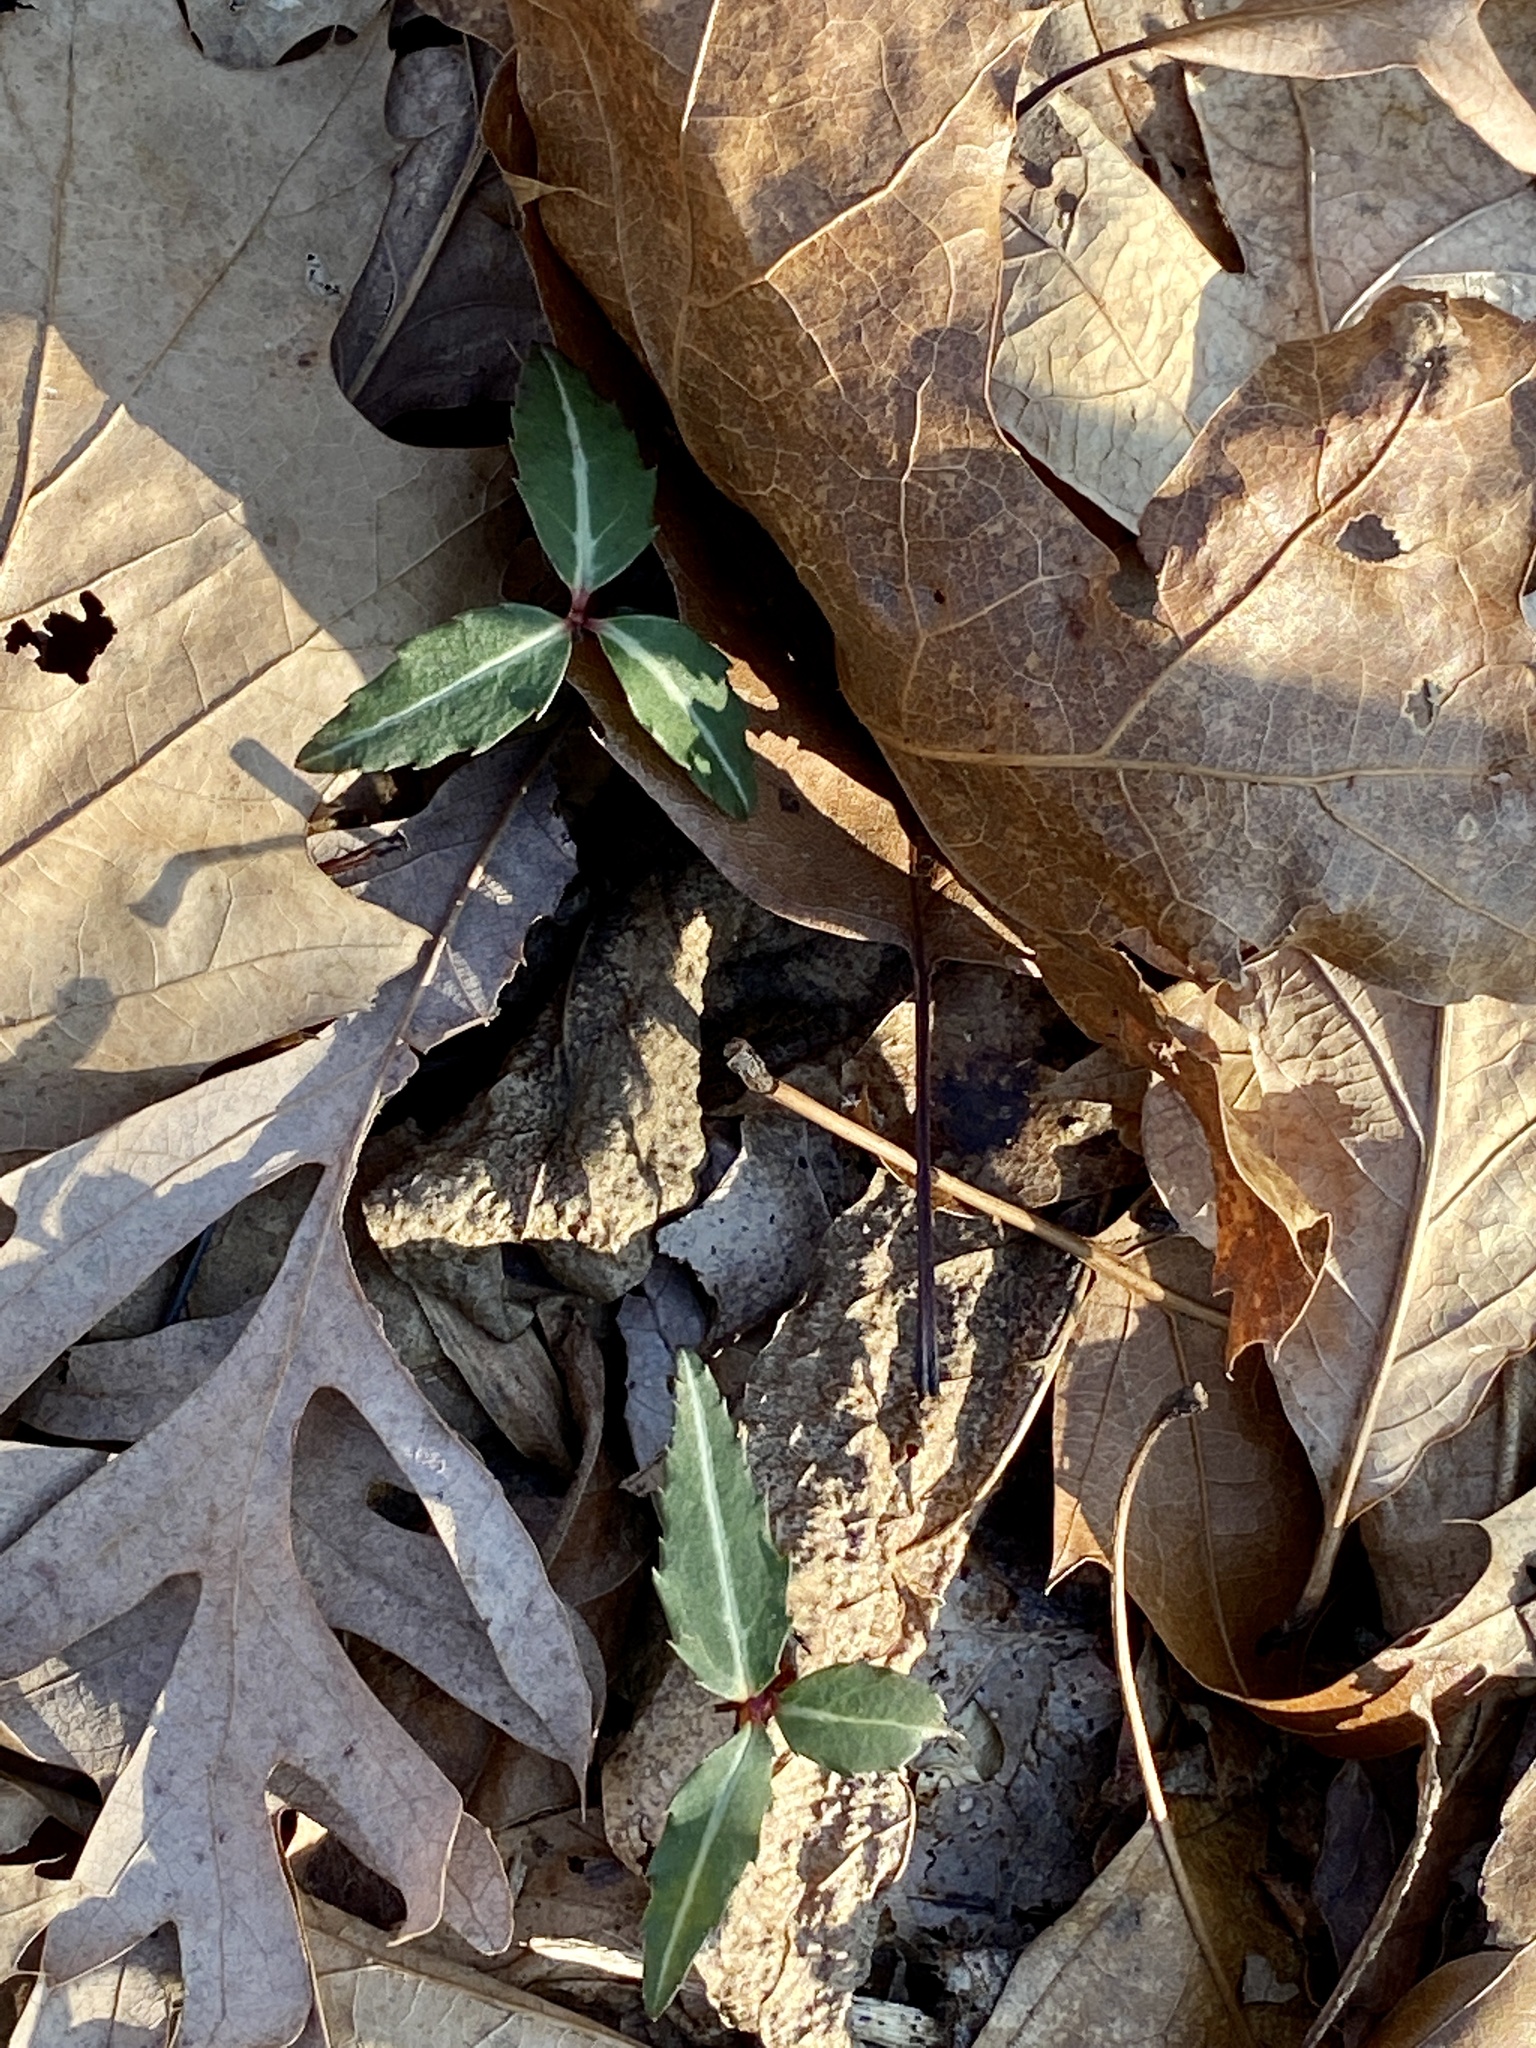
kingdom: Plantae
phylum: Tracheophyta
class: Magnoliopsida
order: Ericales
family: Ericaceae
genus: Chimaphila
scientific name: Chimaphila maculata
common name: Spotted pipsissewa
